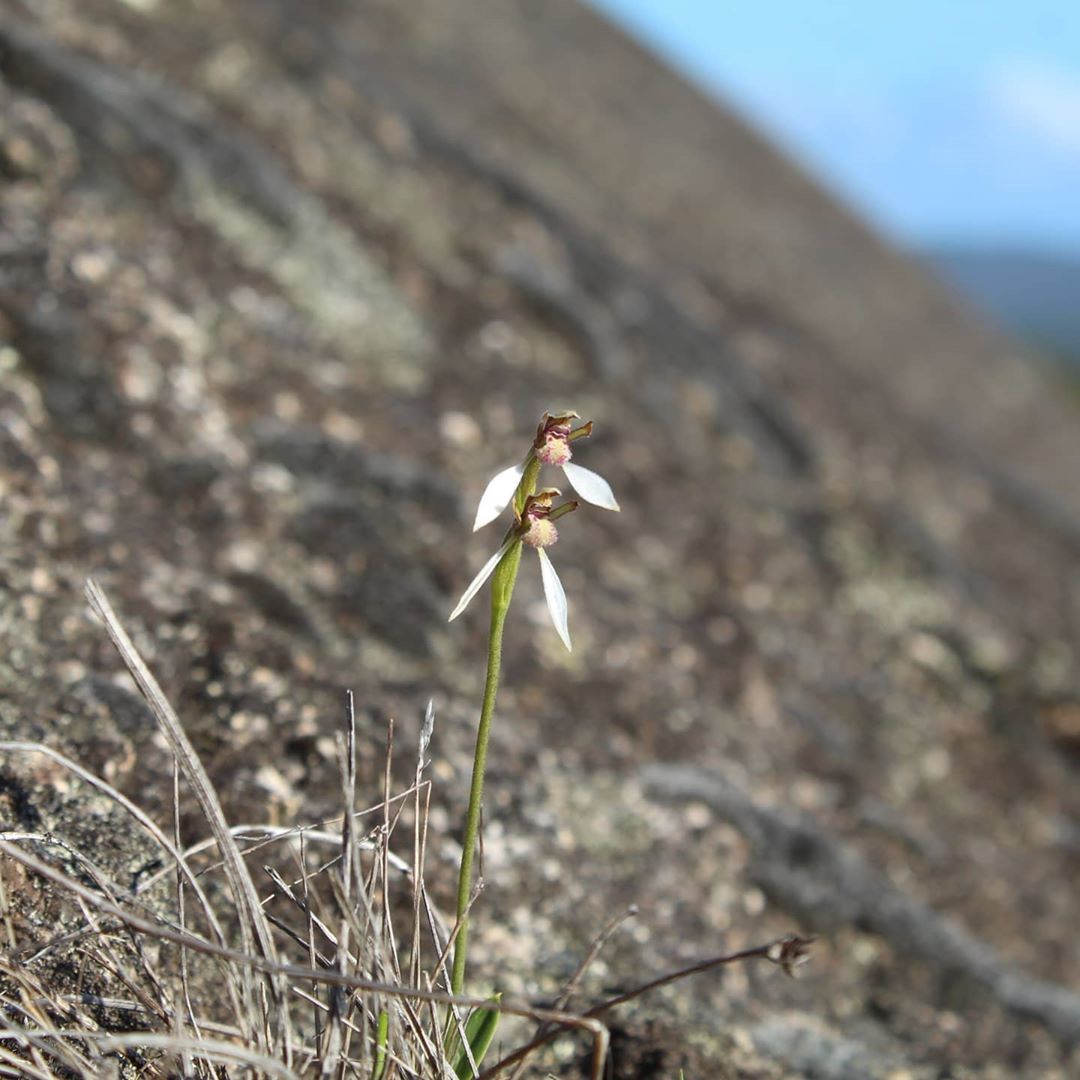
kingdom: Plantae
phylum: Tracheophyta
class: Liliopsida
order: Asparagales
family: Orchidaceae
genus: Eriochilus
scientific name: Eriochilus pulchellus
